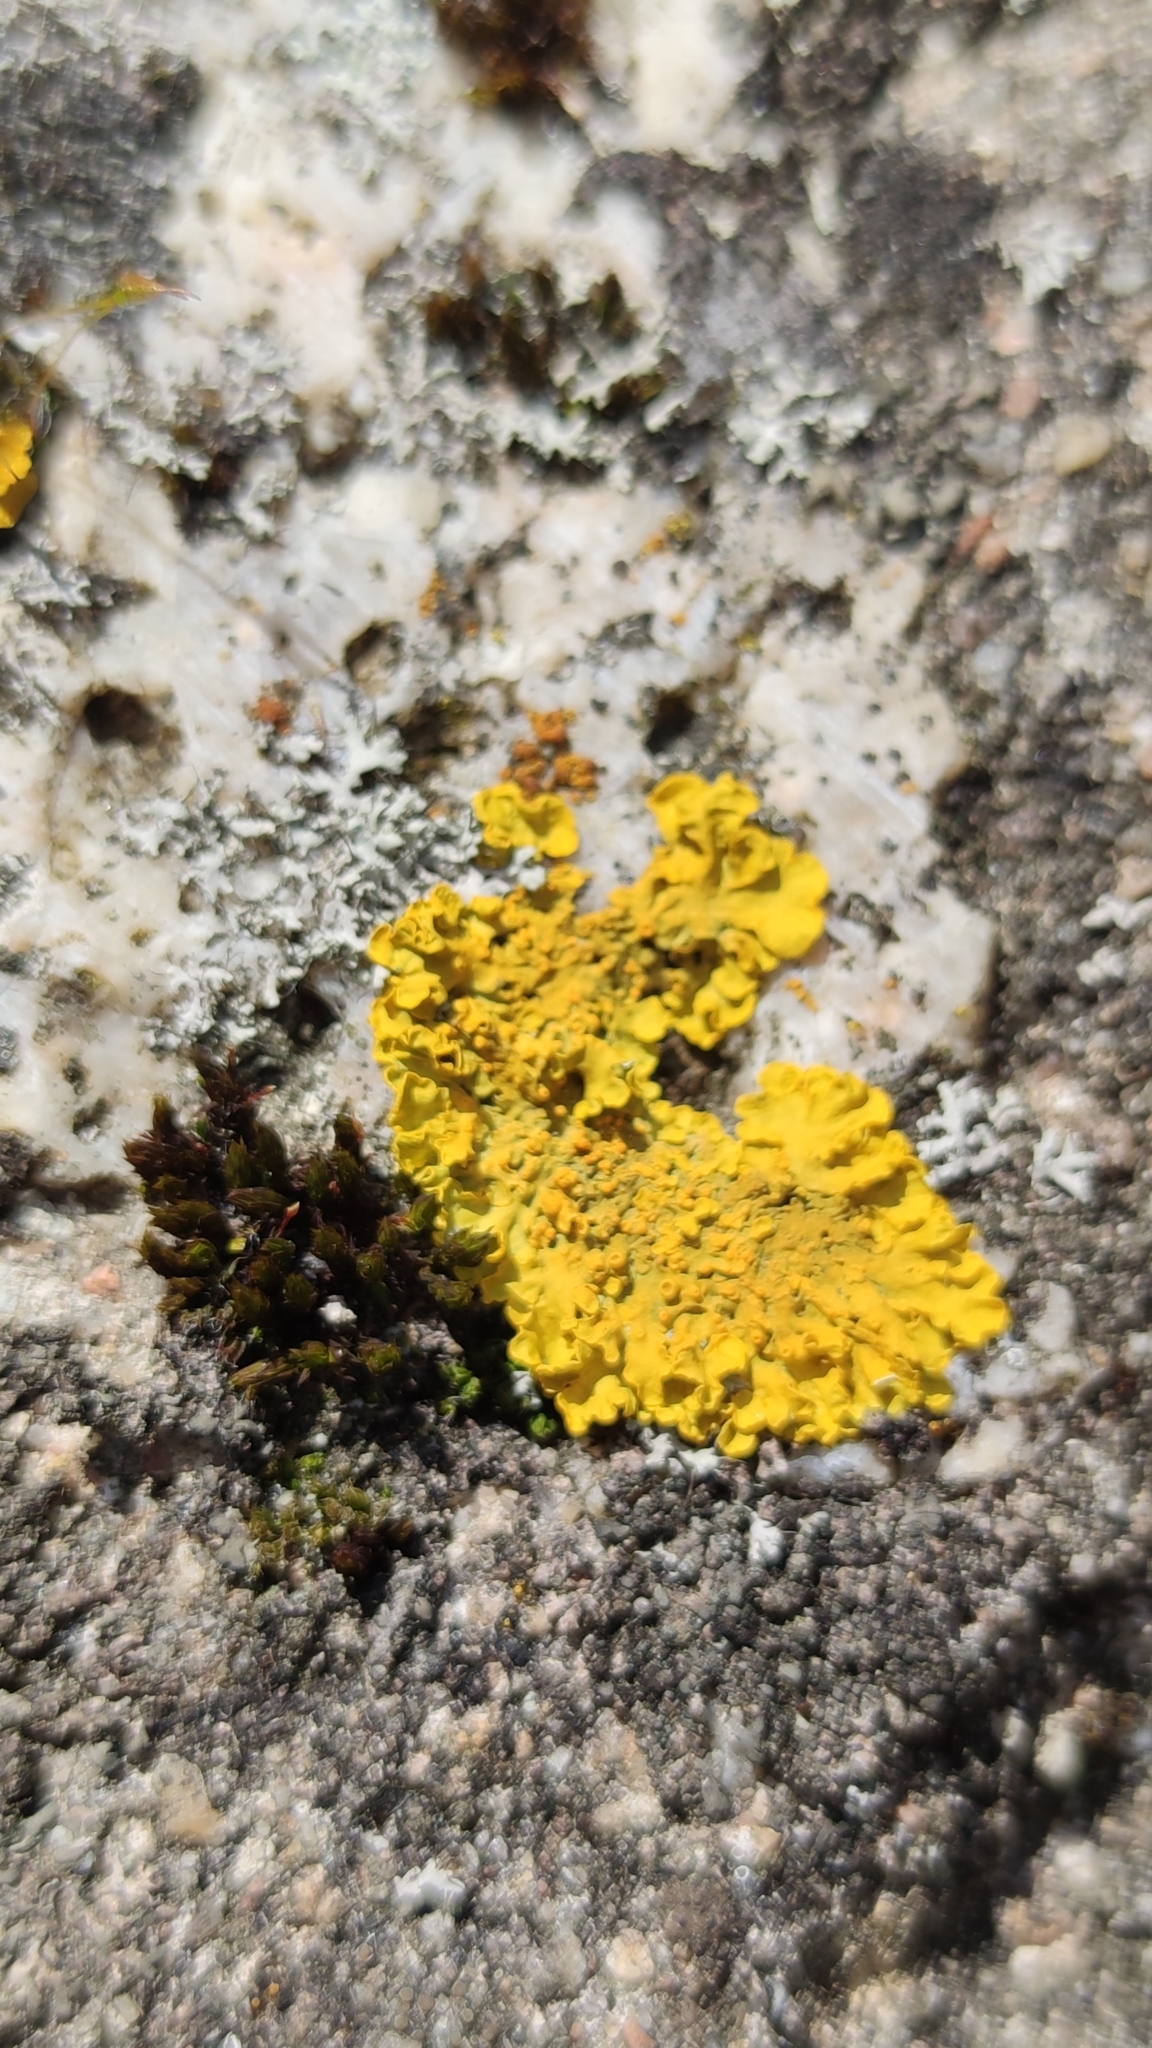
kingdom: Fungi
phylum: Ascomycota
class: Lecanoromycetes
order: Teloschistales
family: Teloschistaceae
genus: Xanthoria
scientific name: Xanthoria parietina
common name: Common orange lichen
